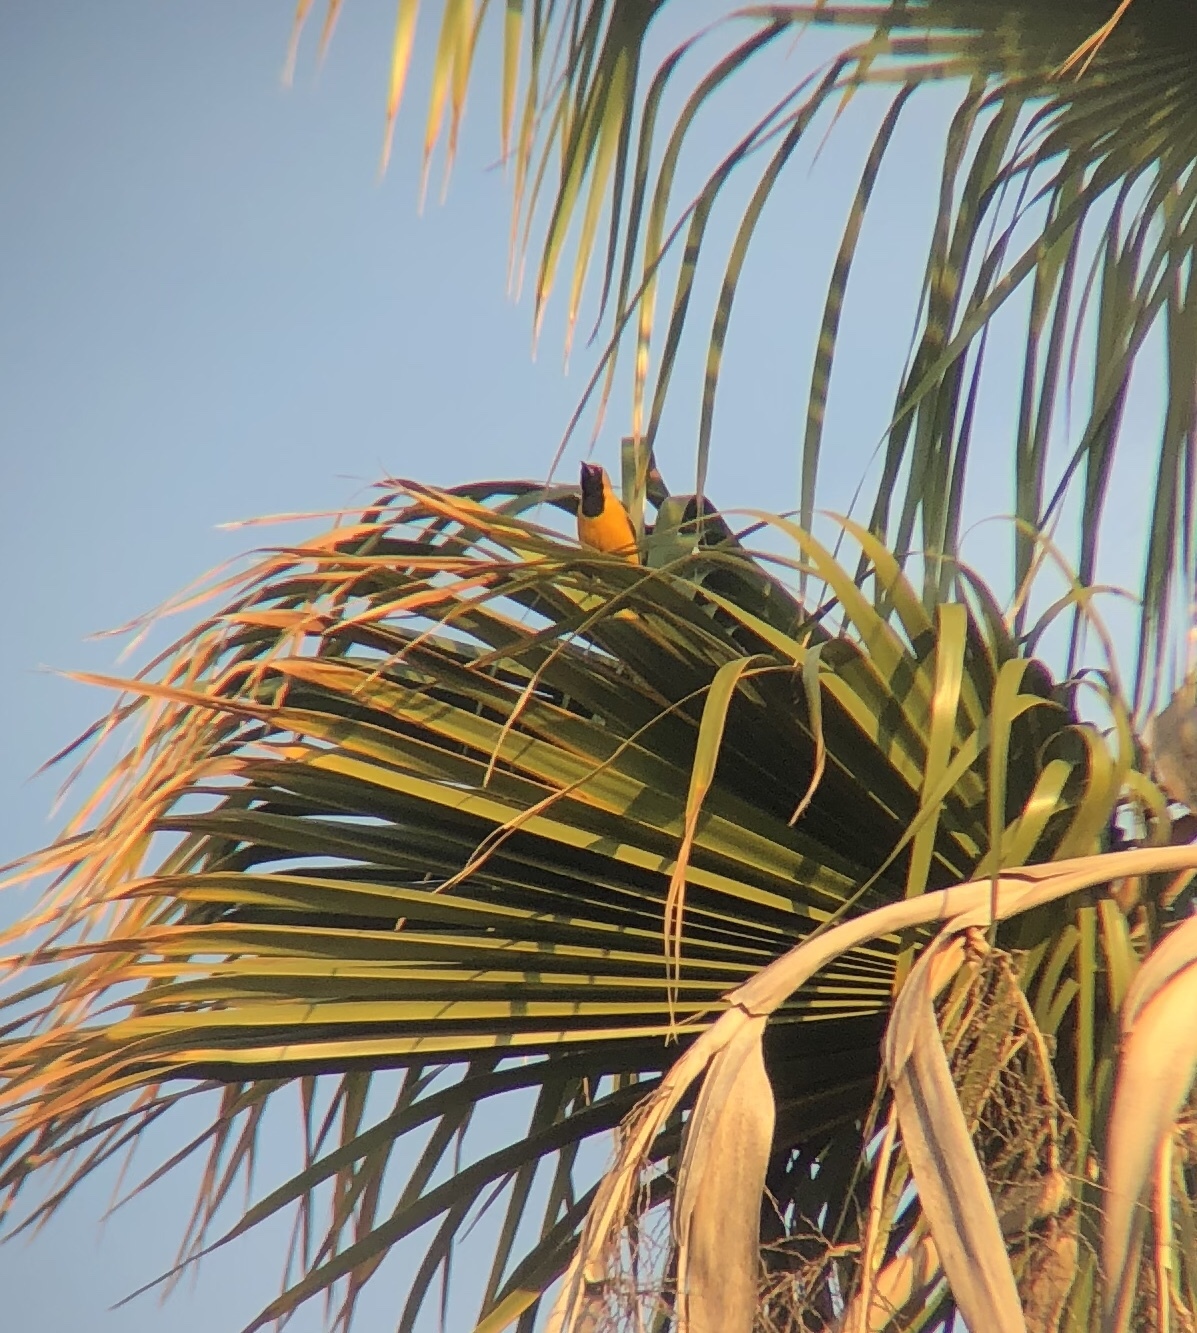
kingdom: Animalia
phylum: Chordata
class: Aves
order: Passeriformes
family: Icteridae
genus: Icterus
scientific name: Icterus cucullatus
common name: Hooded oriole
